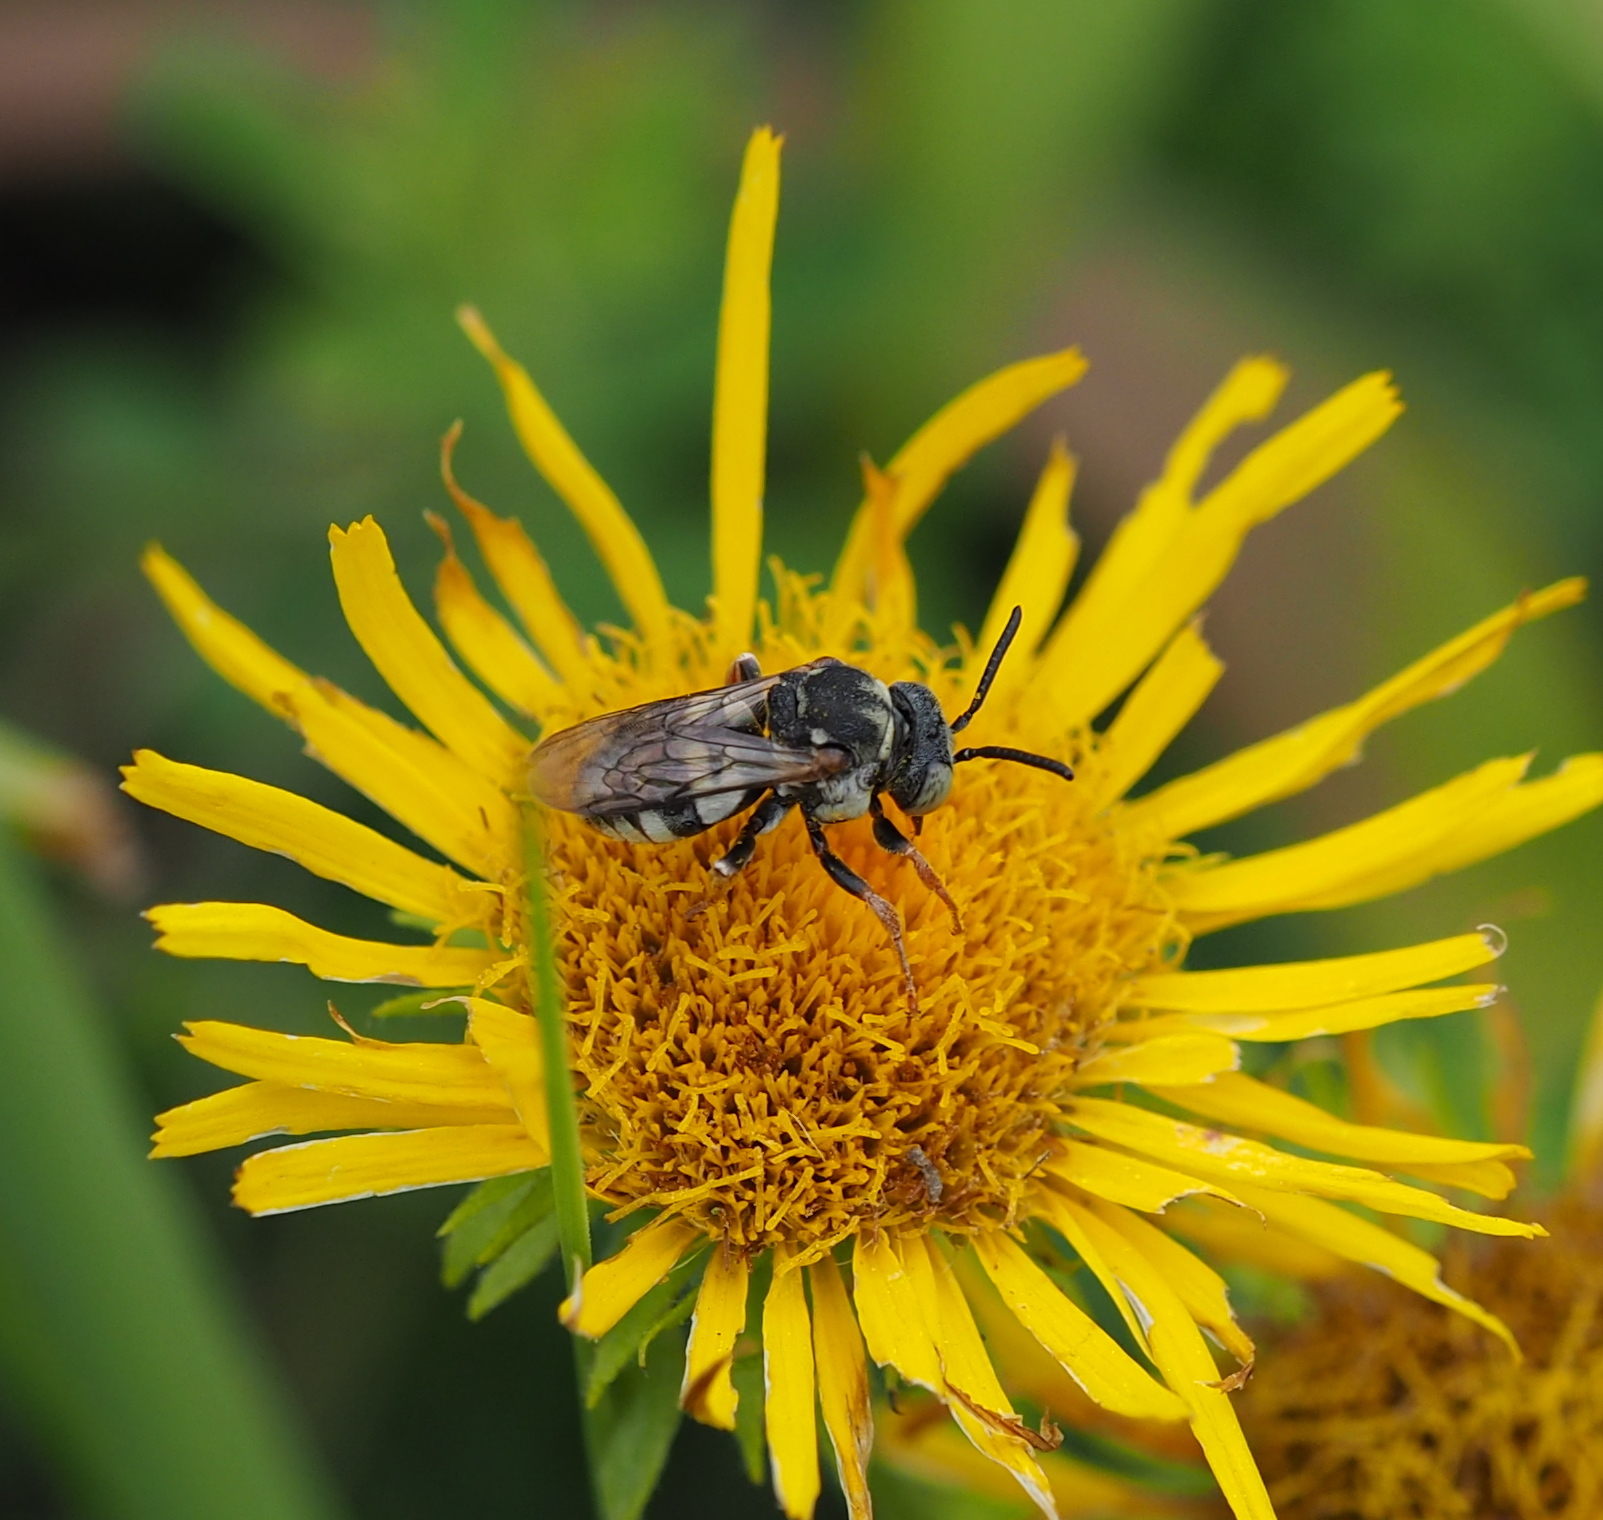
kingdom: Animalia
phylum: Arthropoda
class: Insecta
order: Hymenoptera
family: Apidae
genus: Epeolus
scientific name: Epeolus variegatus
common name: Black-thighed epeolus
